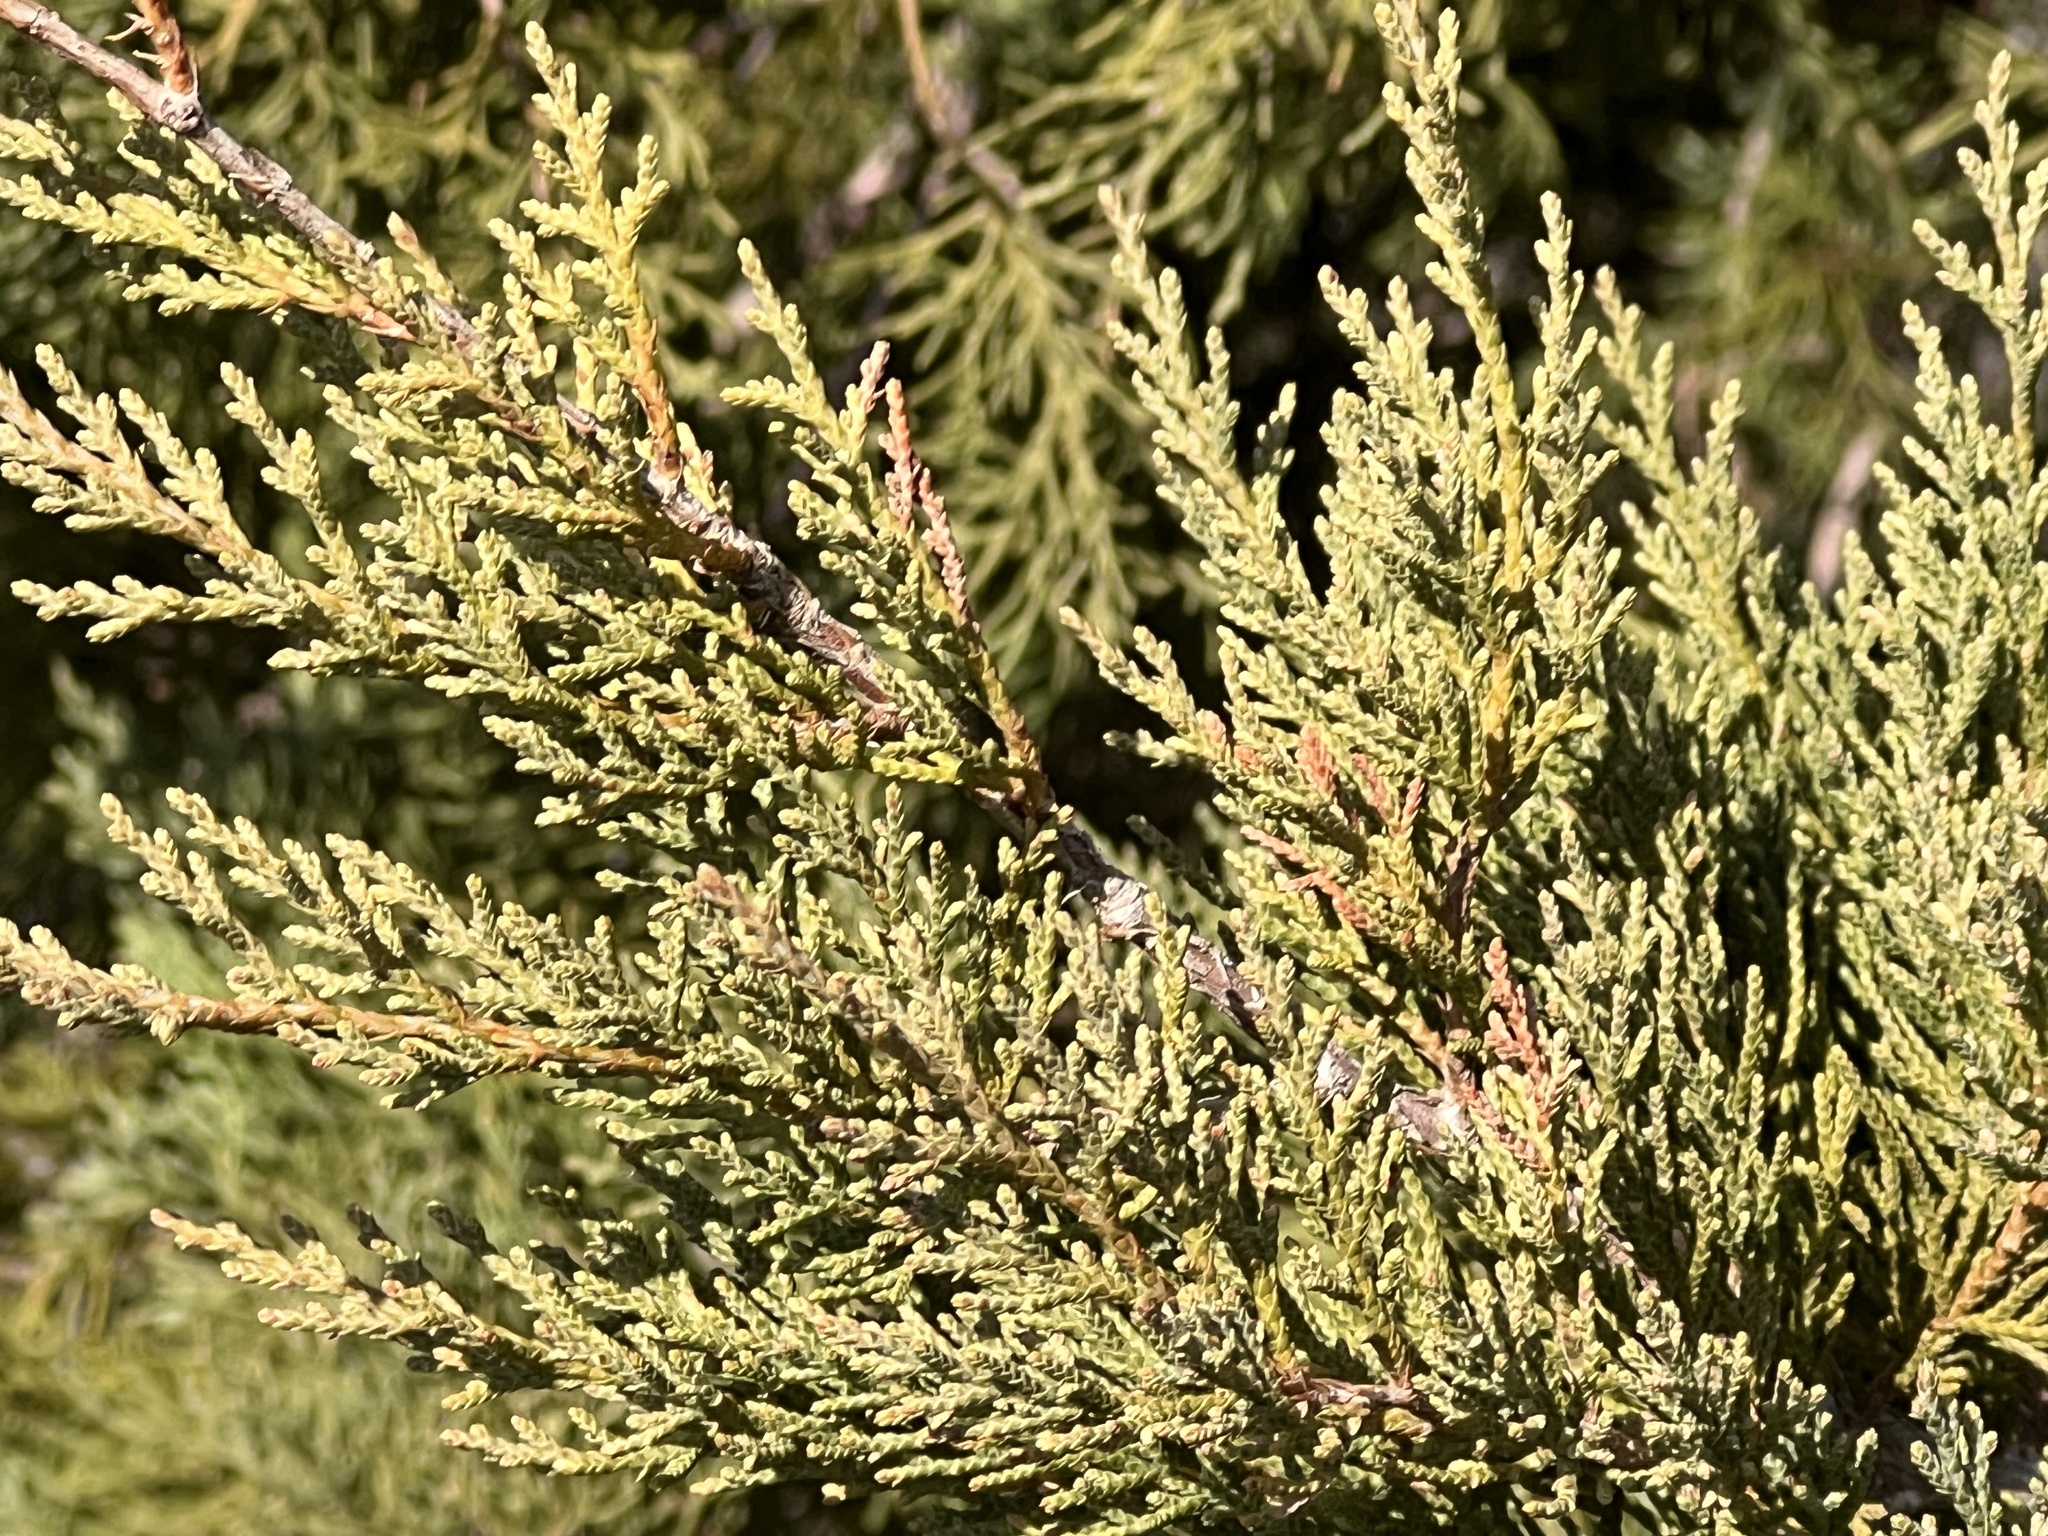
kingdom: Plantae
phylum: Tracheophyta
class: Pinopsida
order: Pinales
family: Cupressaceae
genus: Juniperus
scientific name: Juniperus virginiana
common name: Red juniper
